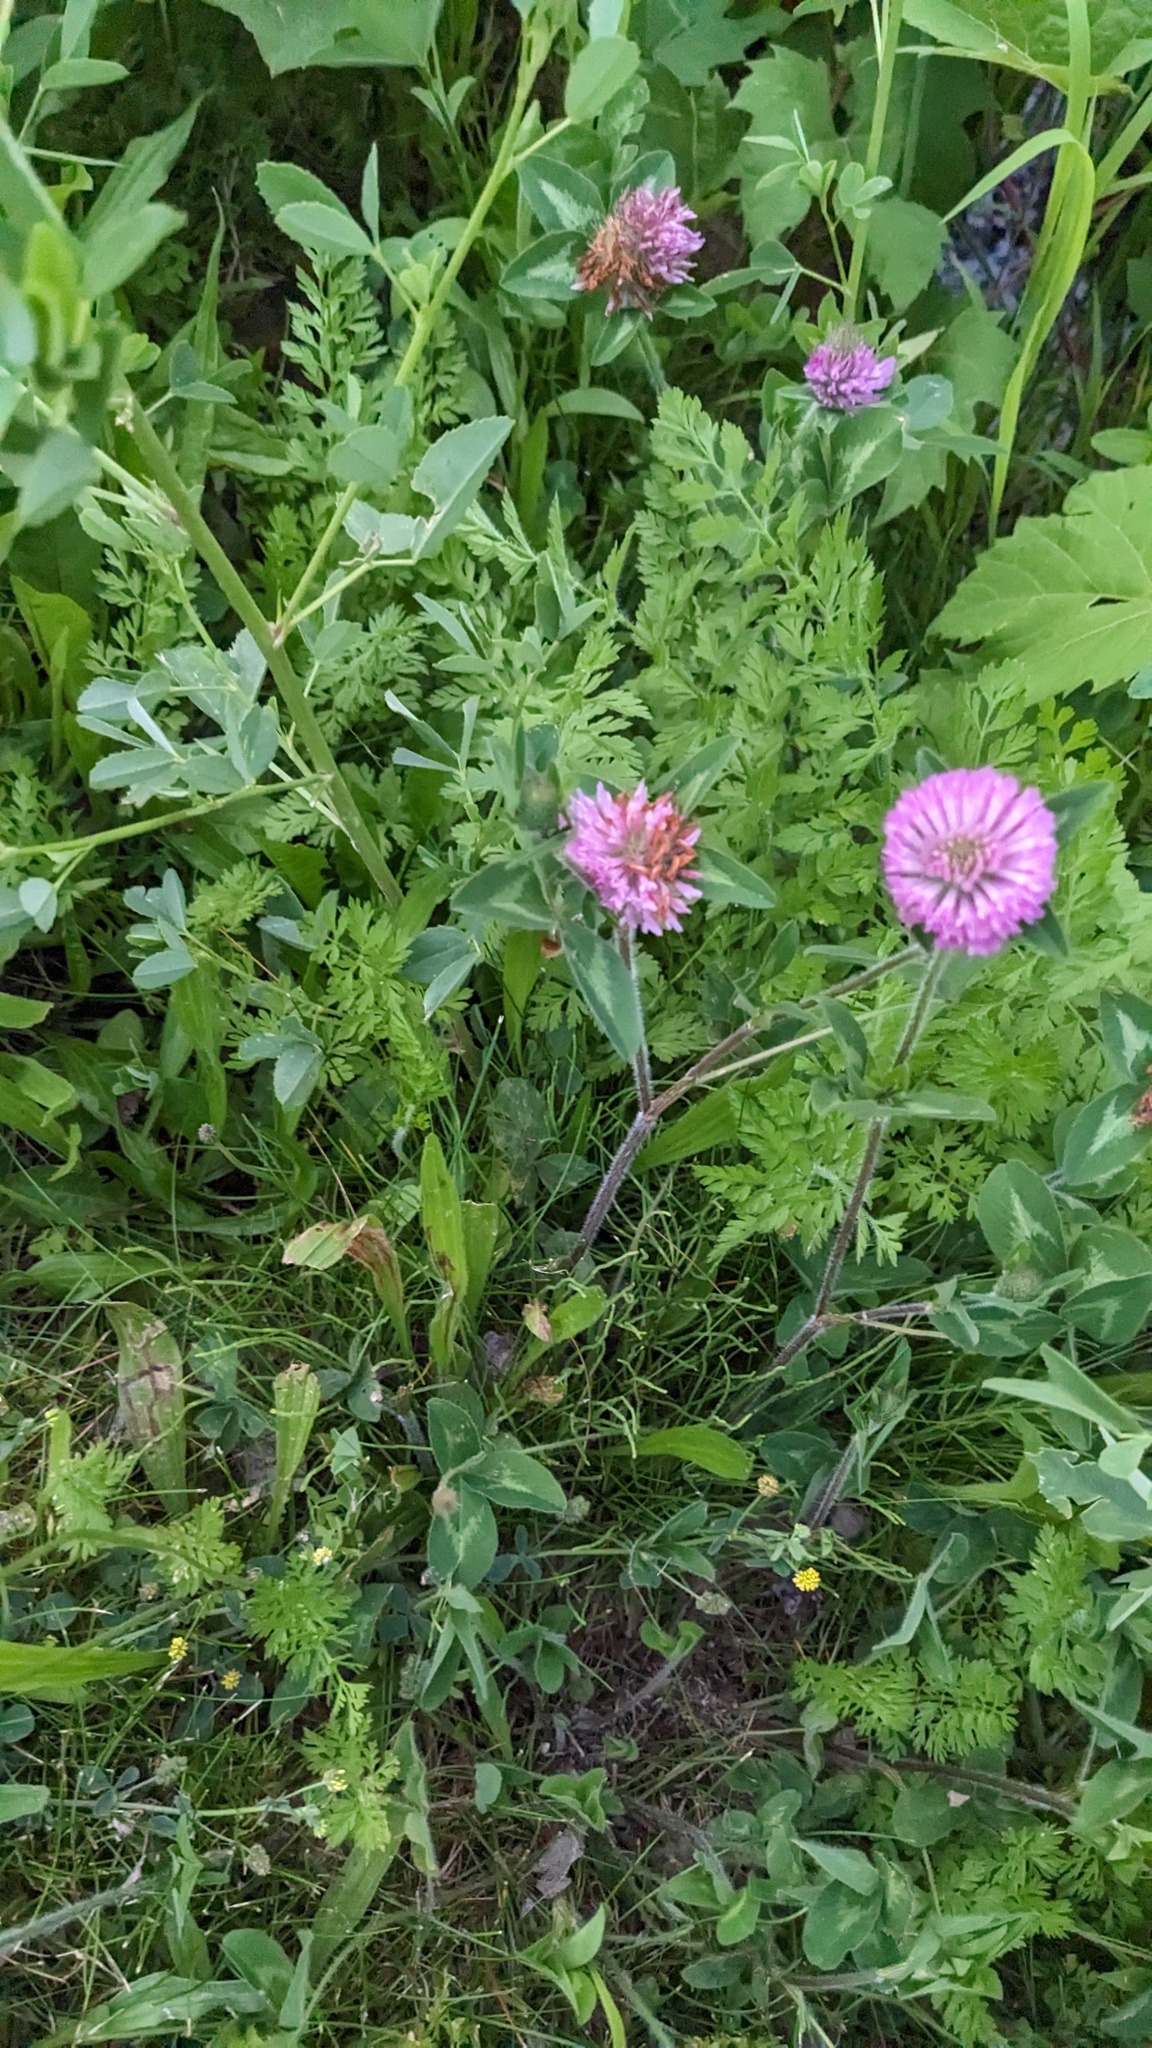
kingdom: Plantae
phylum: Tracheophyta
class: Magnoliopsida
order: Fabales
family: Fabaceae
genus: Trifolium
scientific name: Trifolium pratense
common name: Red clover
